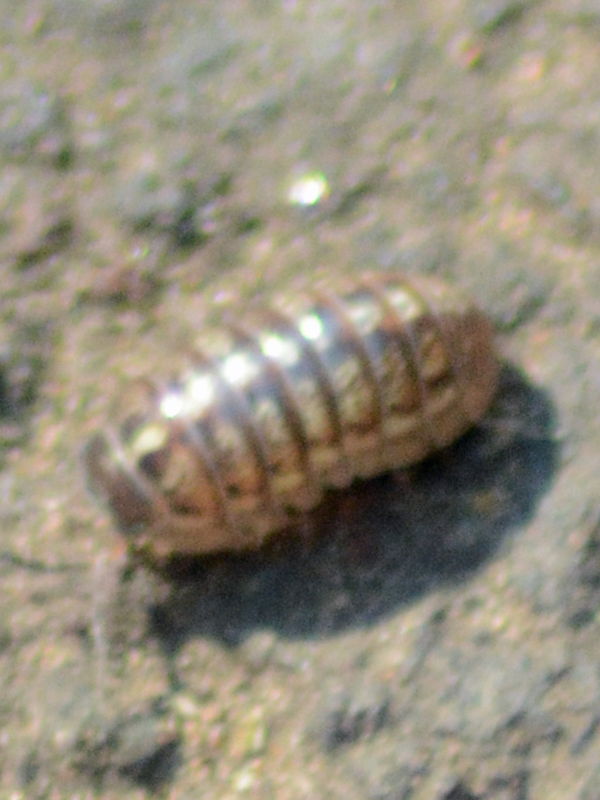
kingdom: Animalia
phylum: Arthropoda
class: Malacostraca
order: Isopoda
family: Armadillidiidae
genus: Armadillidium
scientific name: Armadillidium vulgare
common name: Common pill woodlouse
